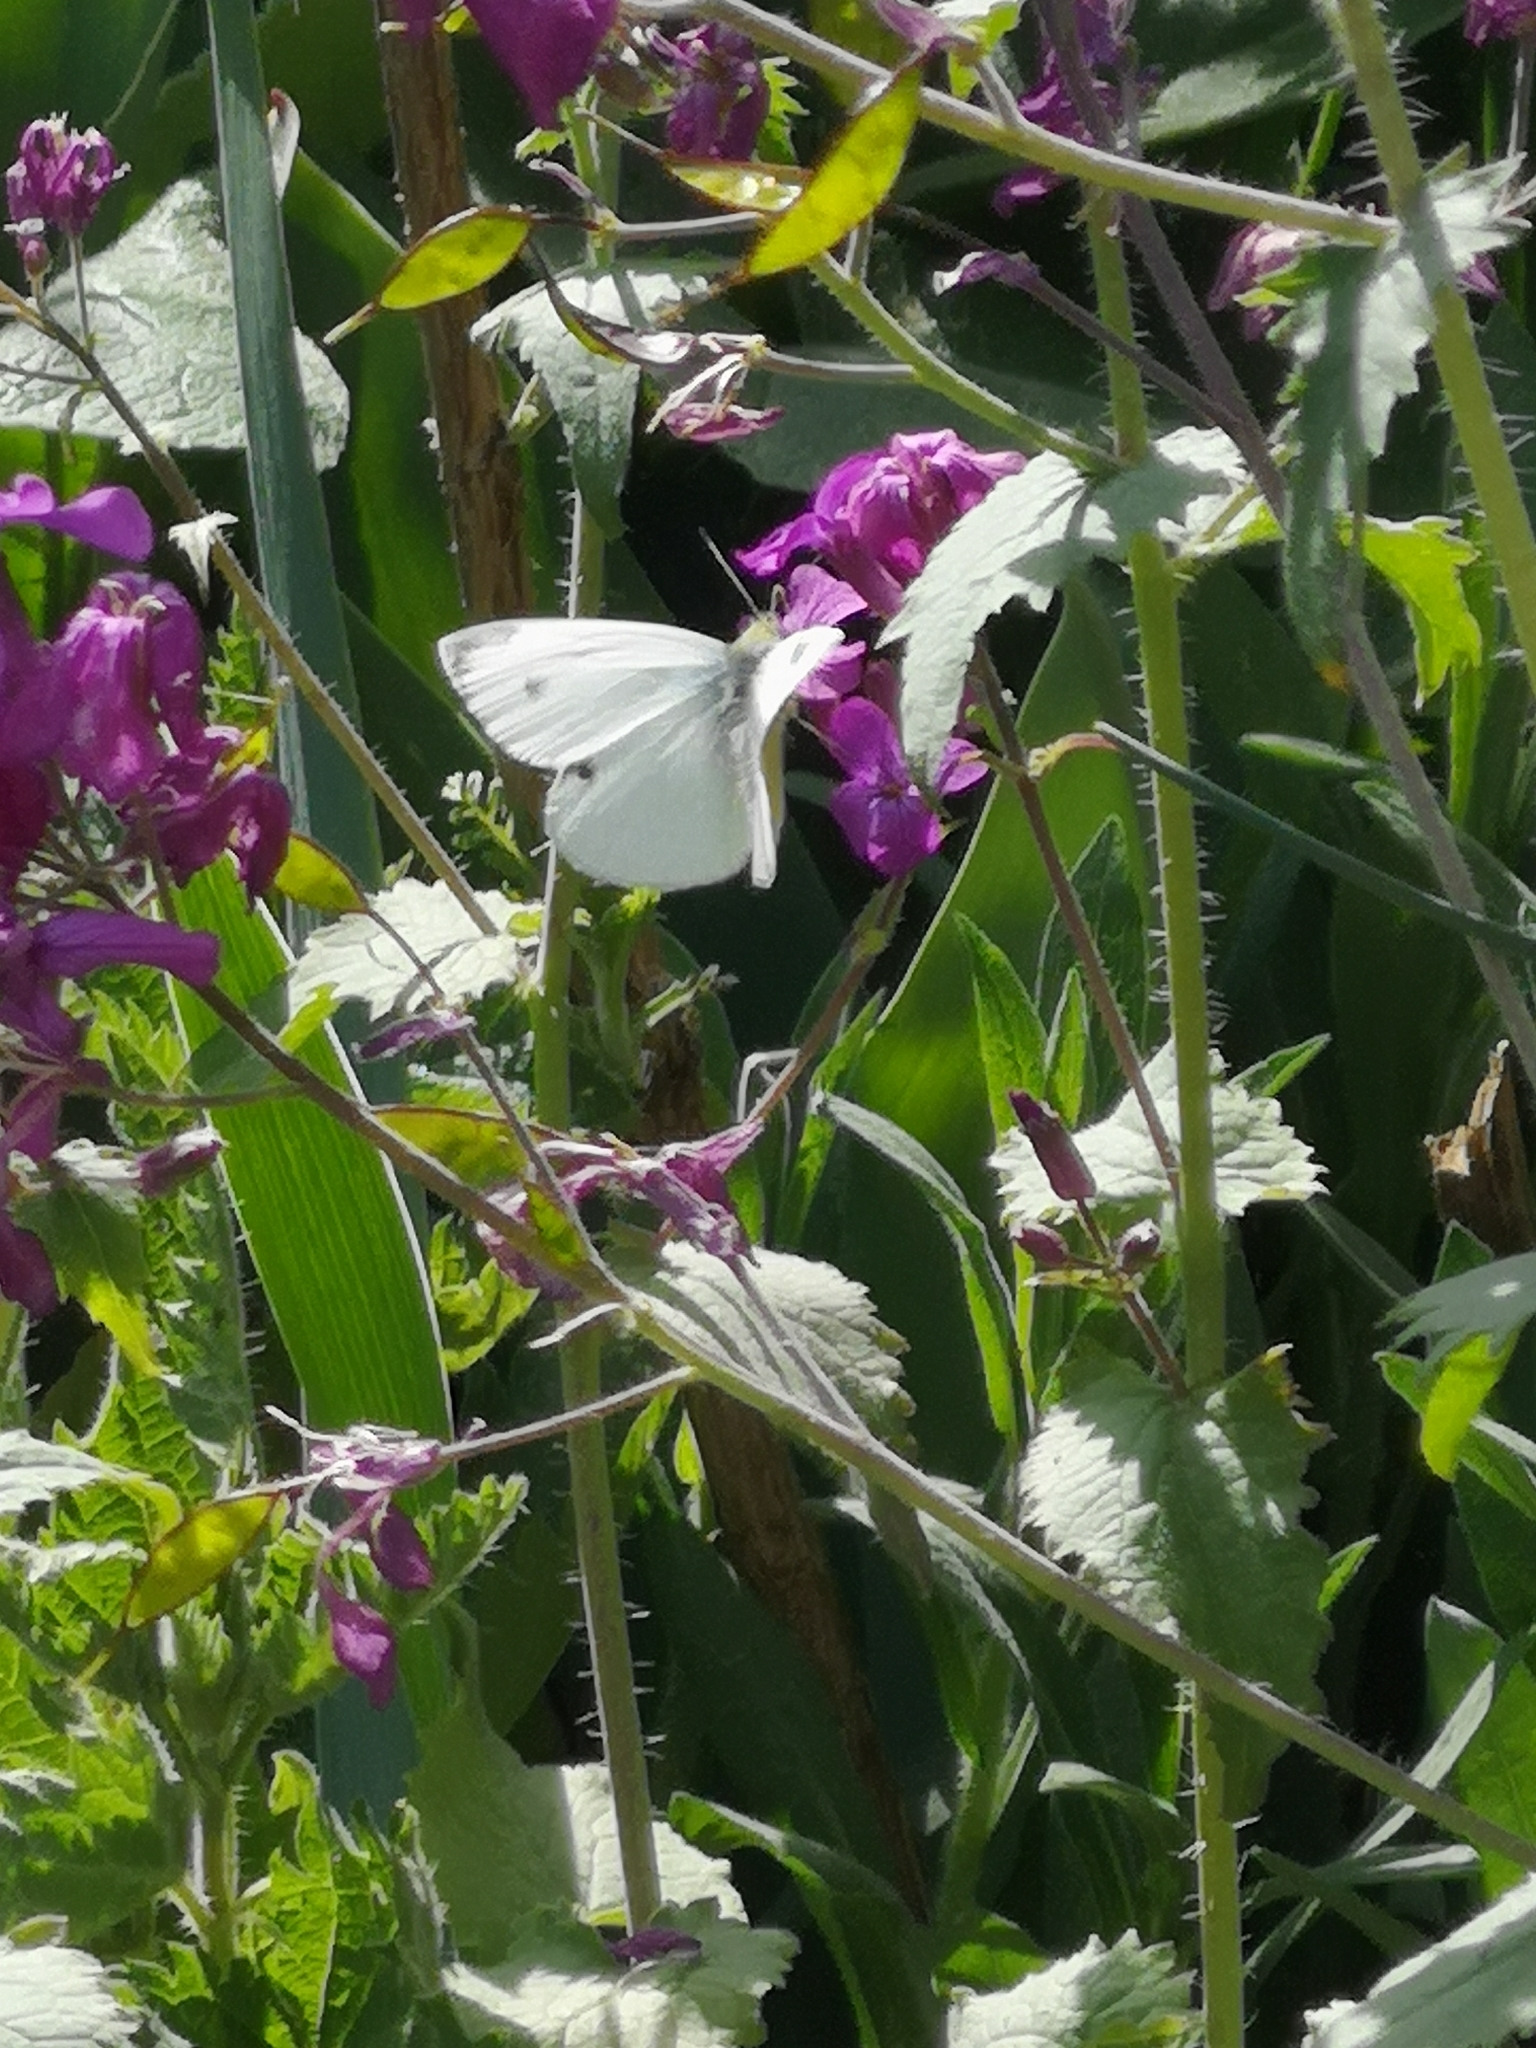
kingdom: Animalia
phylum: Arthropoda
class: Insecta
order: Lepidoptera
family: Pieridae
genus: Pieris
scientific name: Pieris rapae
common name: Small white
